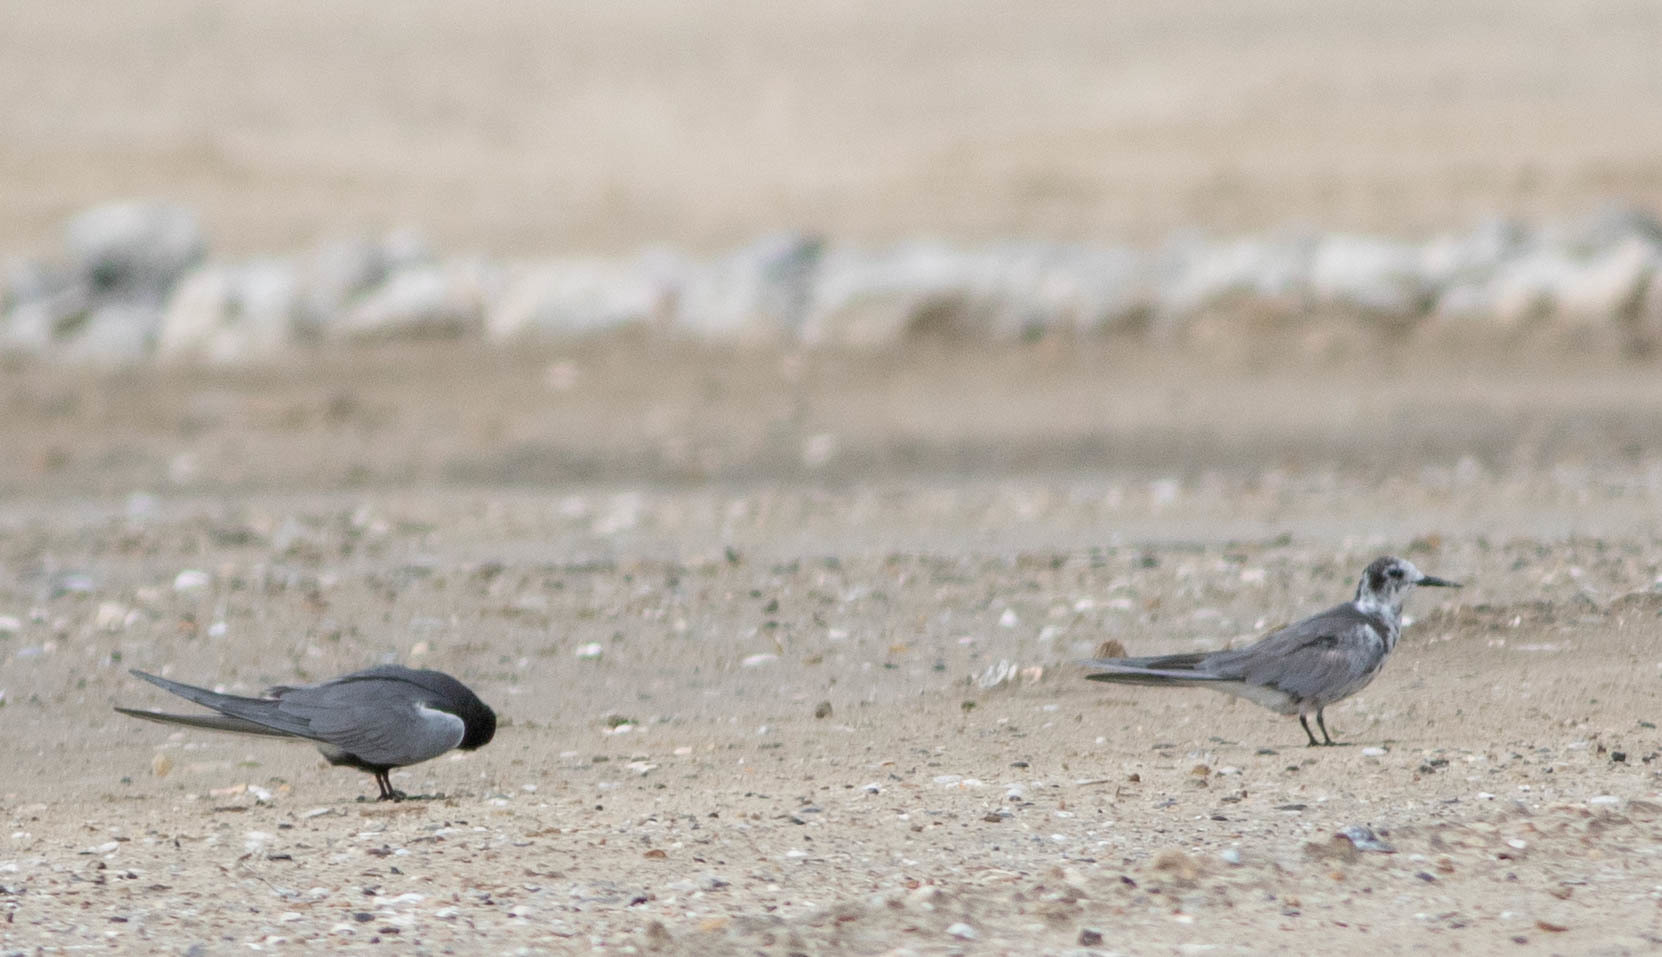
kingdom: Animalia
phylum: Chordata
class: Aves
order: Charadriiformes
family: Laridae
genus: Chlidonias
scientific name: Chlidonias niger
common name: Black tern
